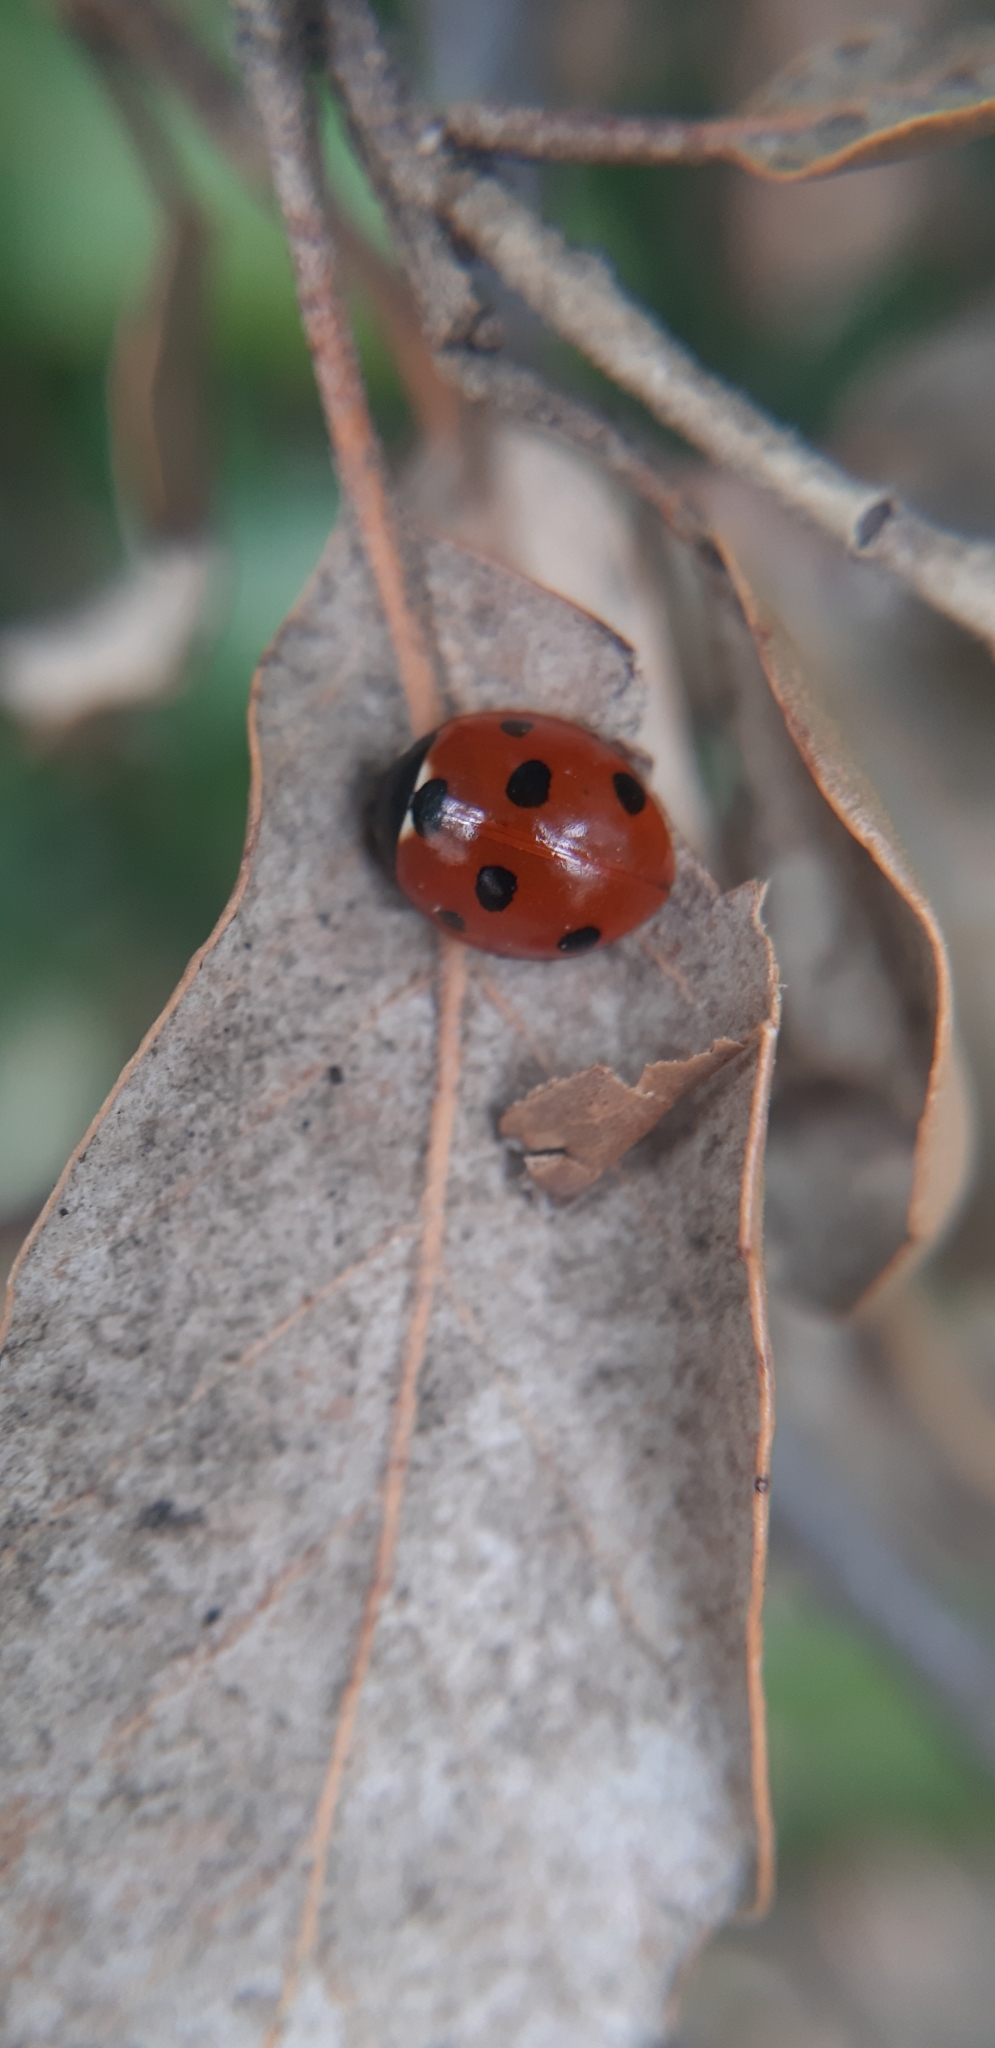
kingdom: Animalia
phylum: Arthropoda
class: Insecta
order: Coleoptera
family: Coccinellidae
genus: Coccinella
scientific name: Coccinella septempunctata
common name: Sevenspotted lady beetle
